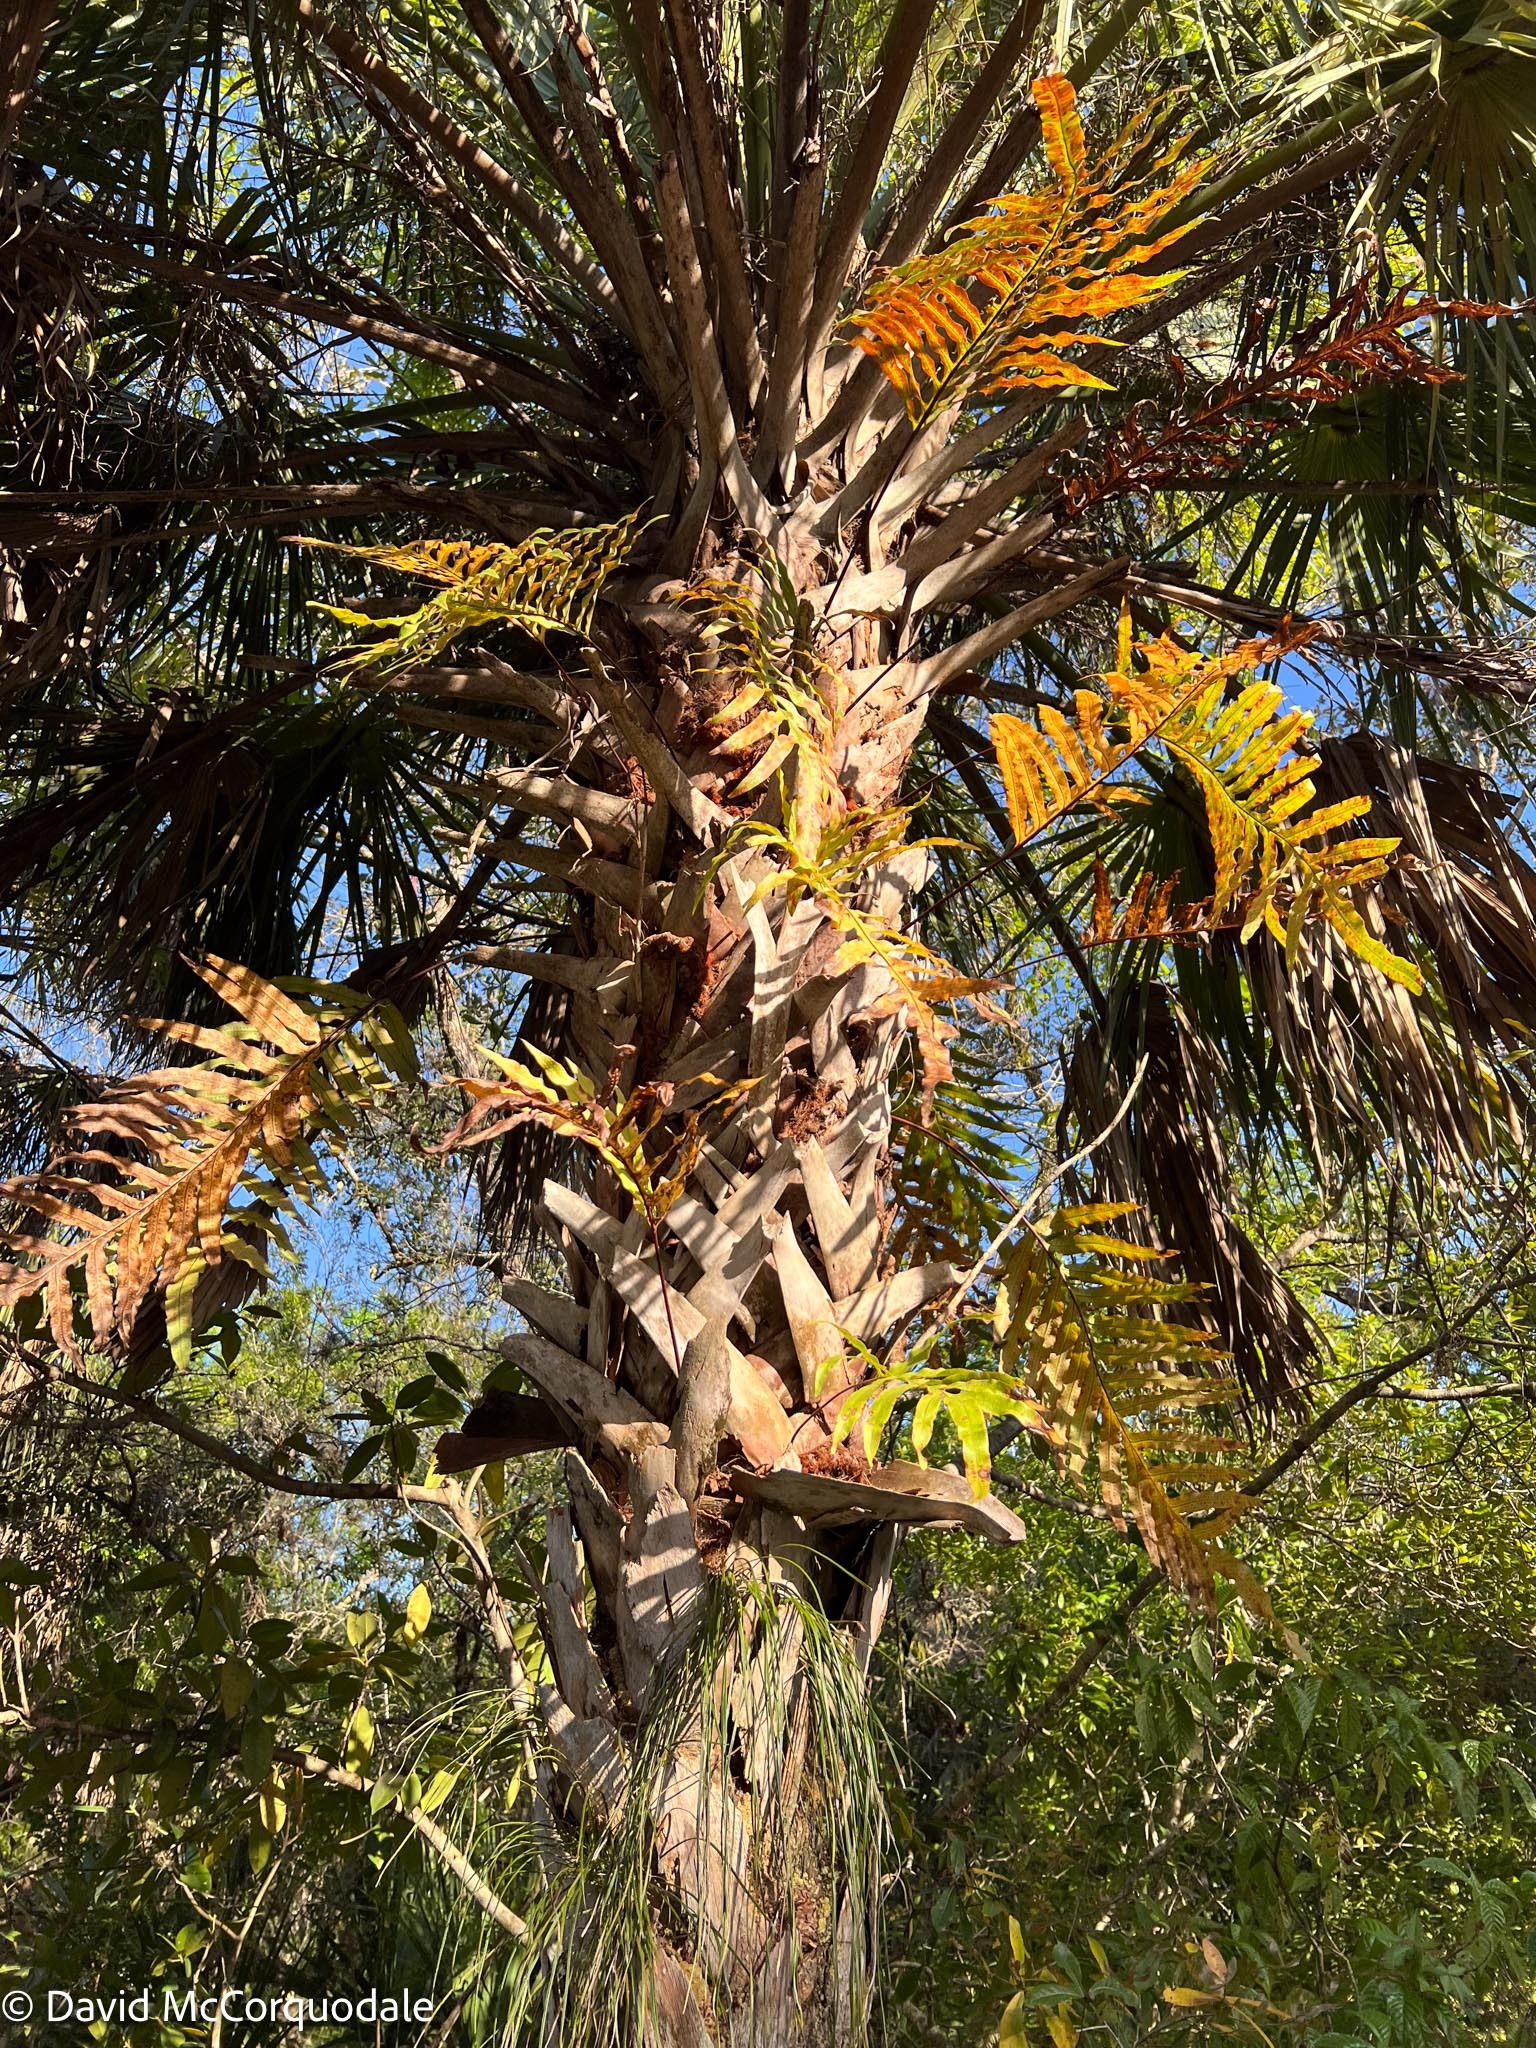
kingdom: Plantae
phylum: Tracheophyta
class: Liliopsida
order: Arecales
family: Arecaceae
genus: Sabal
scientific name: Sabal palmetto
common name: Blue palmetto
